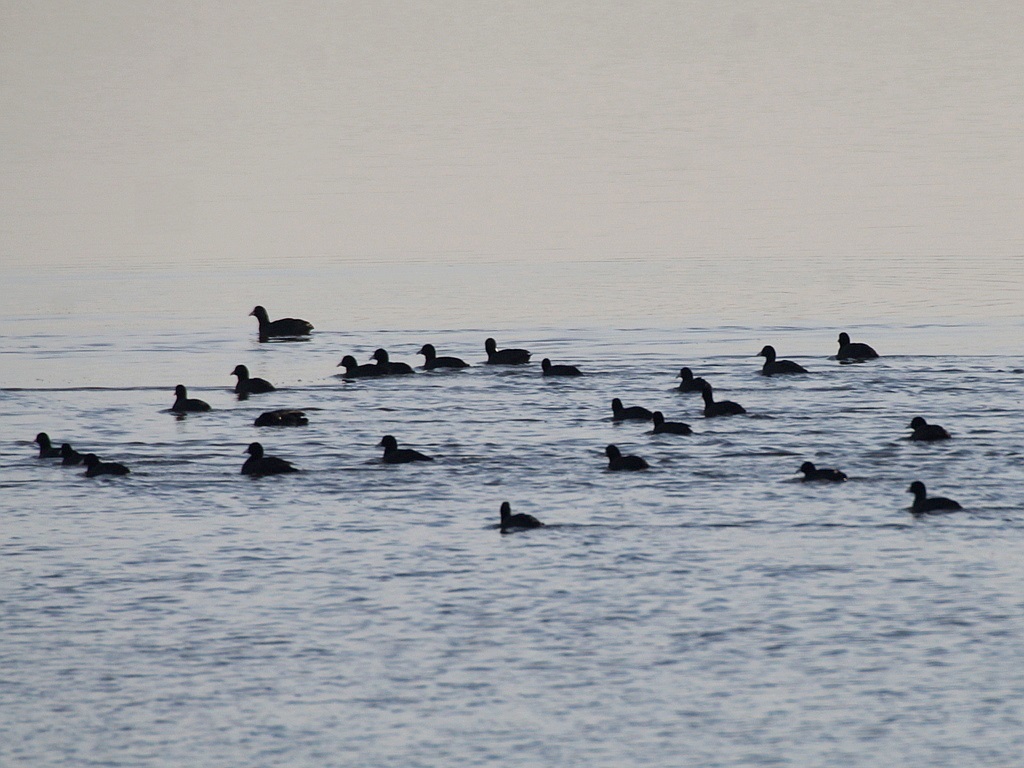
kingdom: Animalia
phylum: Chordata
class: Aves
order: Gruiformes
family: Rallidae
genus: Fulica
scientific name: Fulica atra
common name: Eurasian coot
